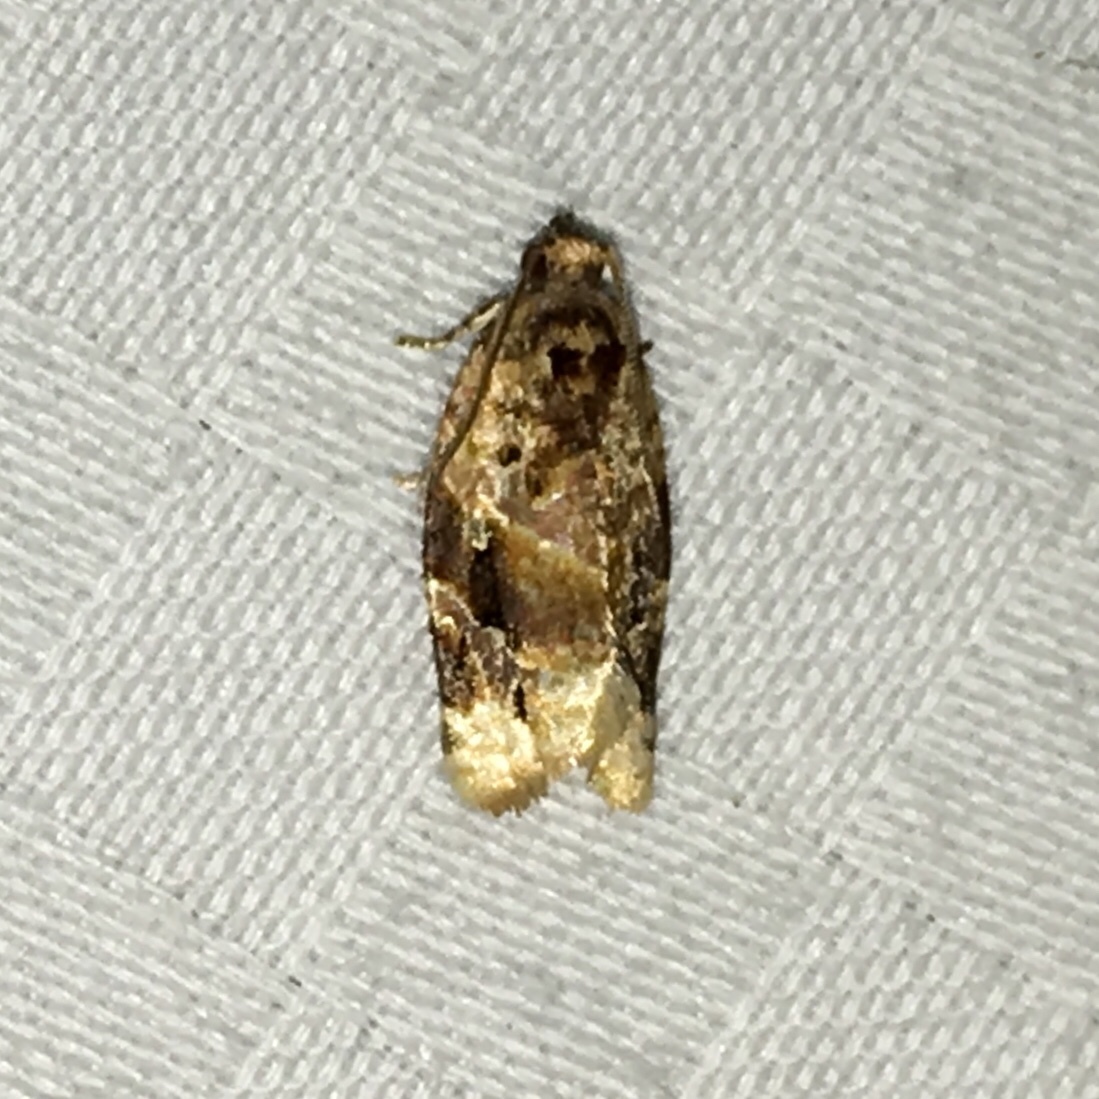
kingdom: Animalia
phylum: Arthropoda
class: Insecta
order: Lepidoptera
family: Tortricidae
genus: Argyrotaenia
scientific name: Argyrotaenia velutinana
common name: Red-banded leafroller moth
